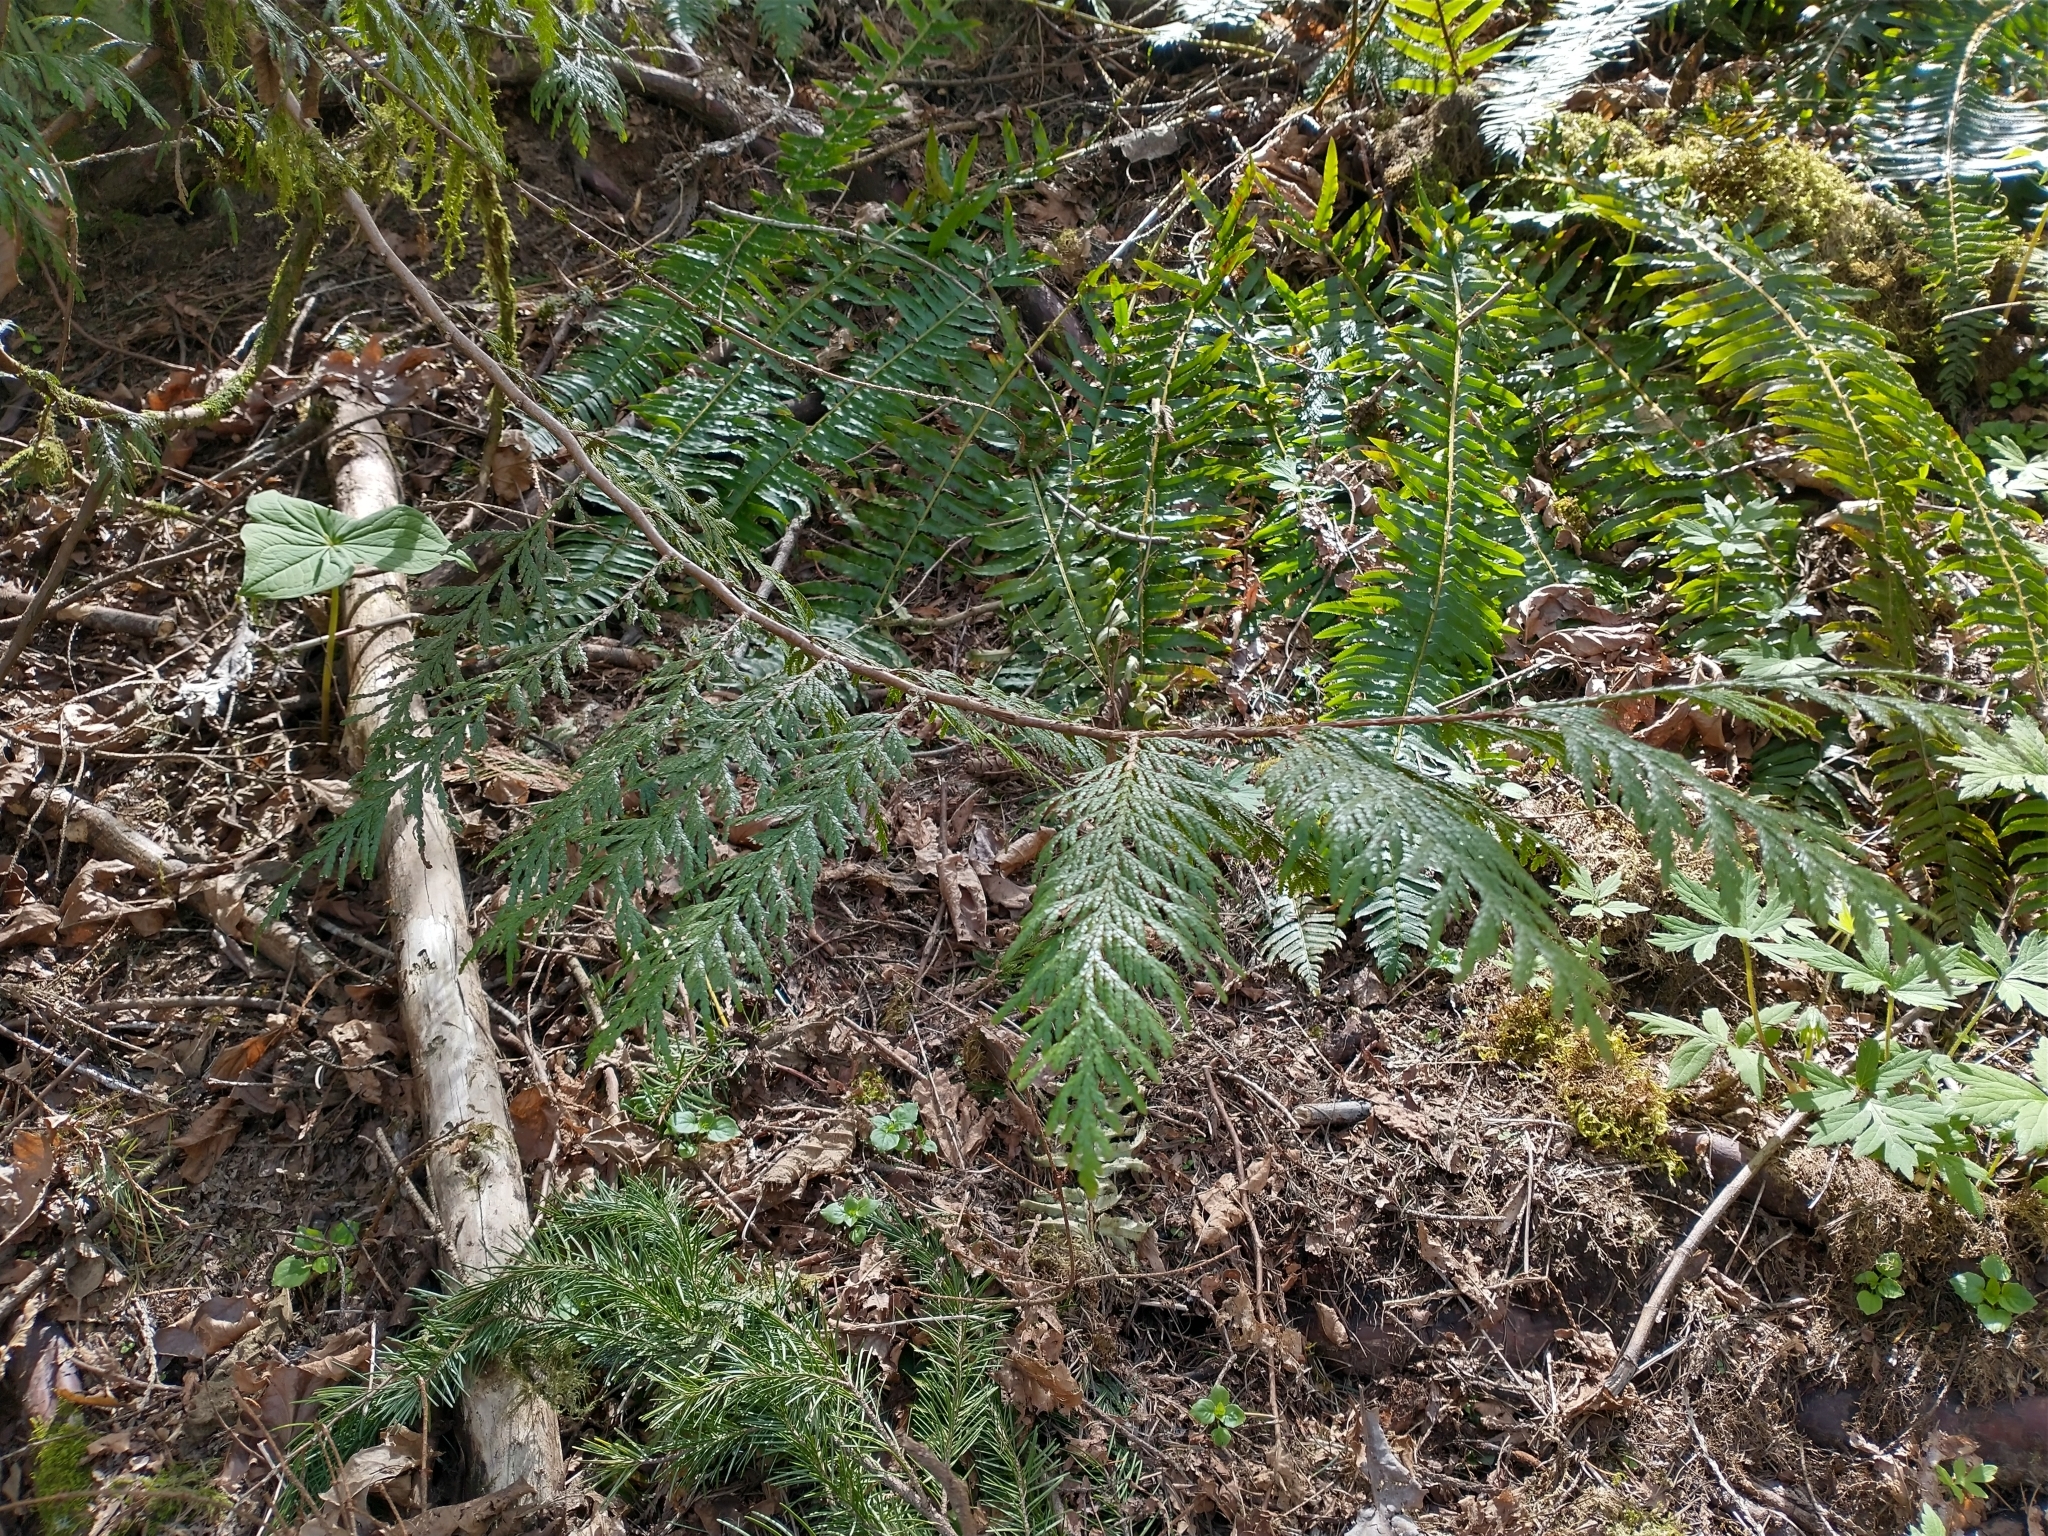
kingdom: Plantae
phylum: Tracheophyta
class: Pinopsida
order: Pinales
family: Cupressaceae
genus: Thuja
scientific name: Thuja plicata
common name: Western red-cedar
